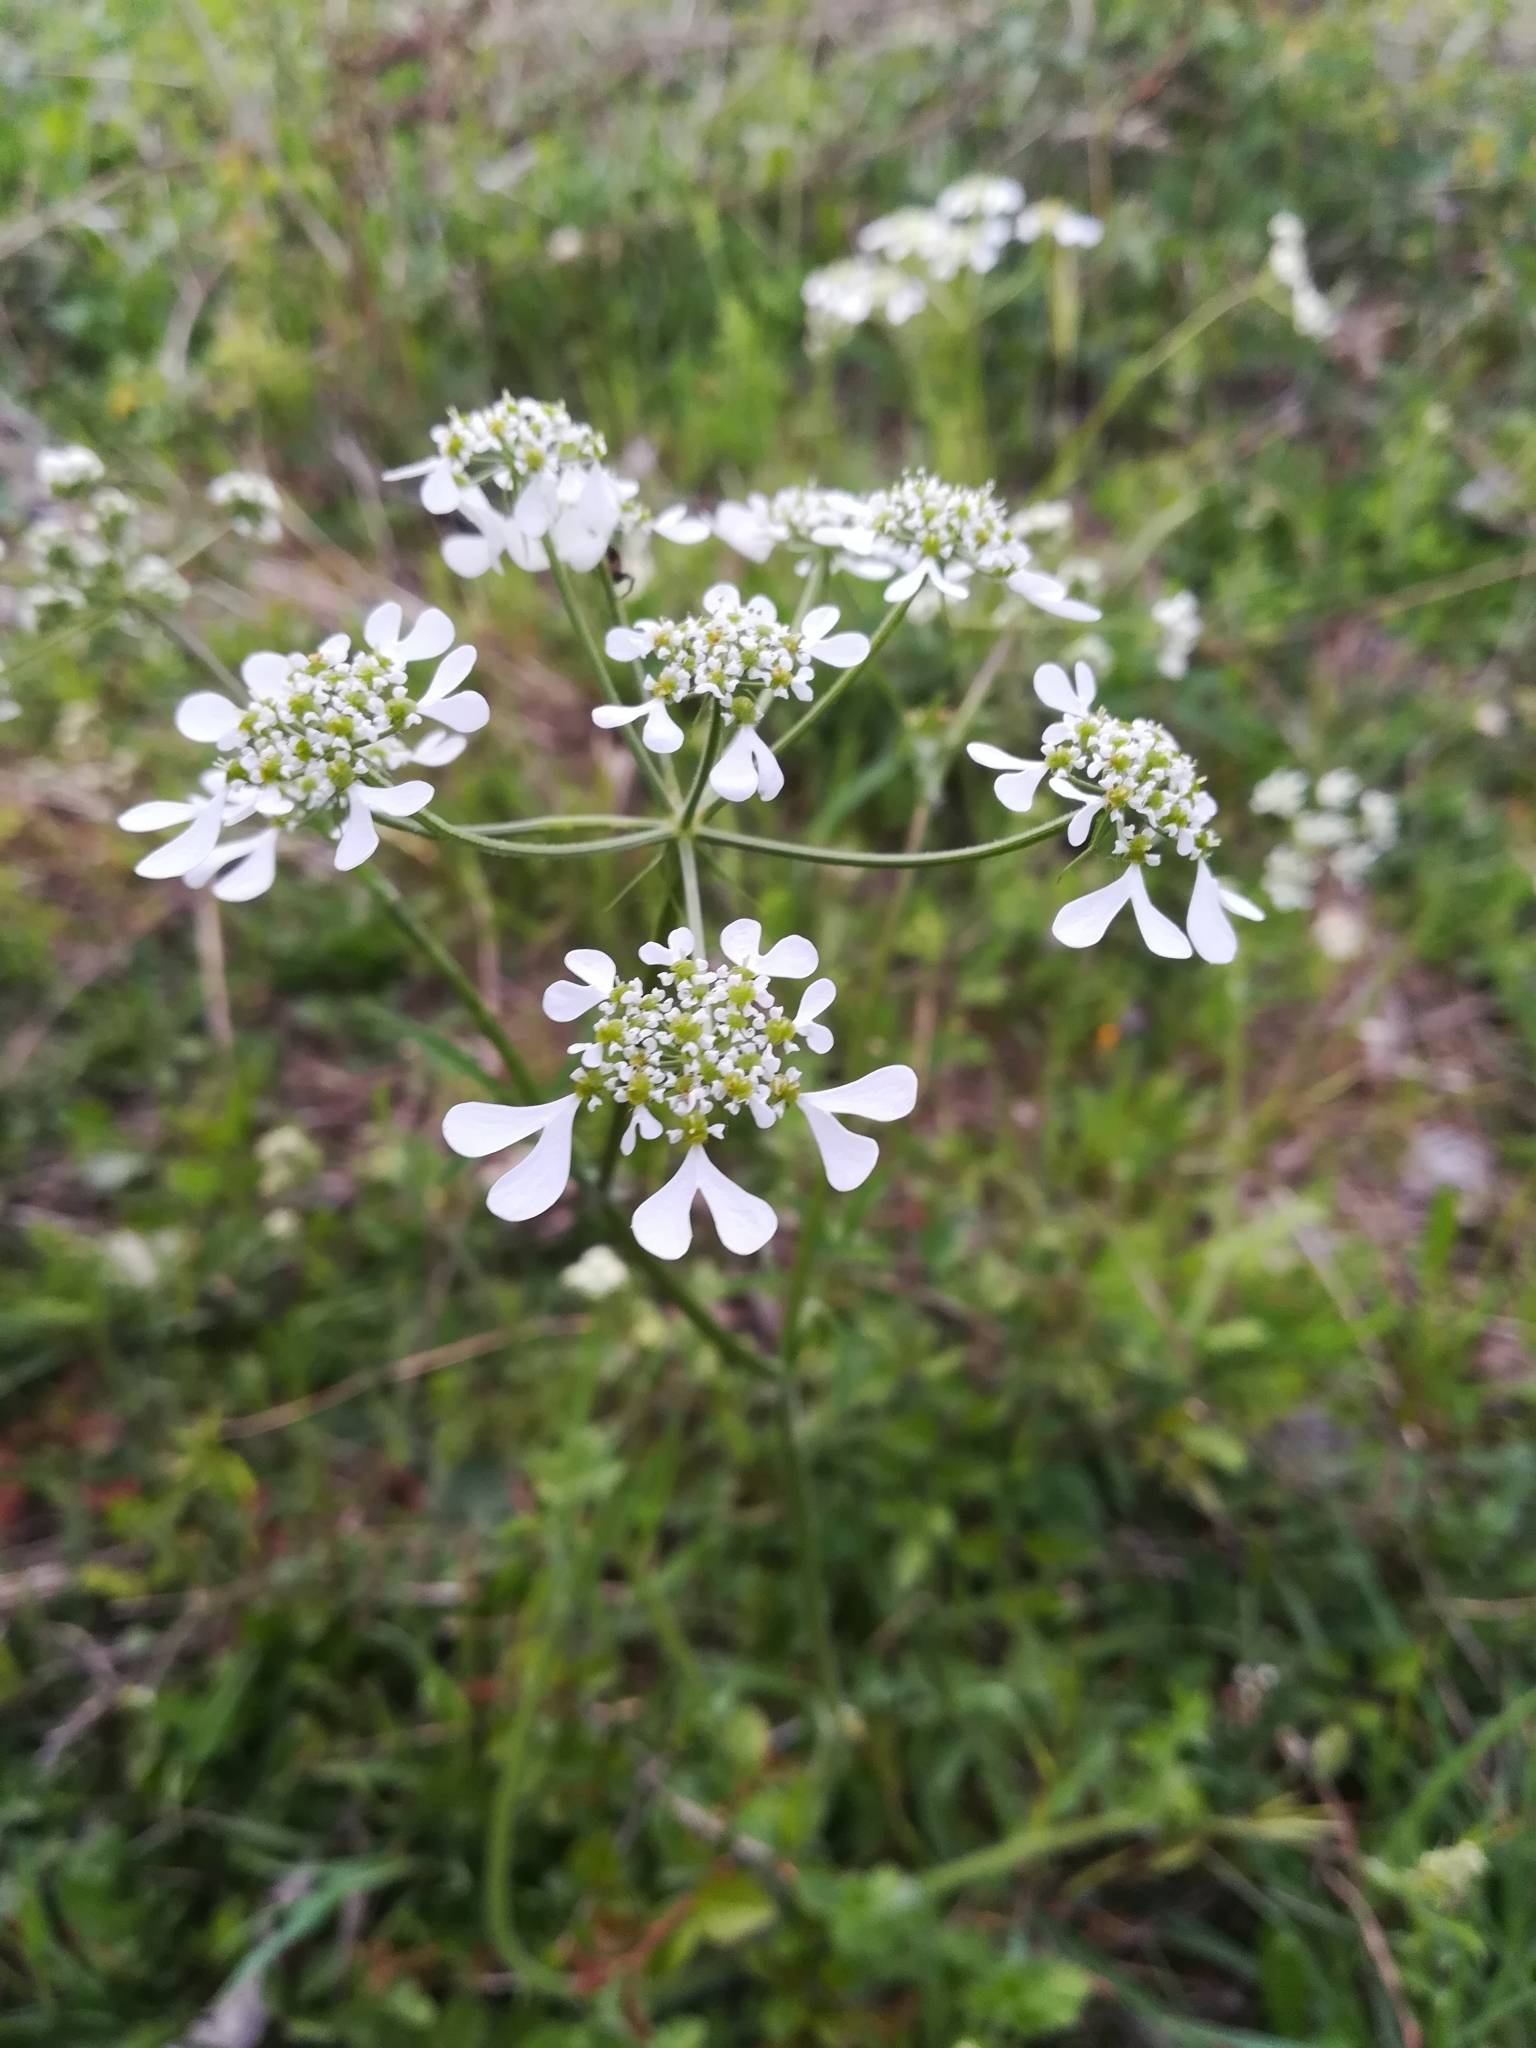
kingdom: Plantae
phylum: Tracheophyta
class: Magnoliopsida
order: Apiales
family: Apiaceae
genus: Tordylium
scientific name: Tordylium apulum
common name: Mediterranean hartwort
